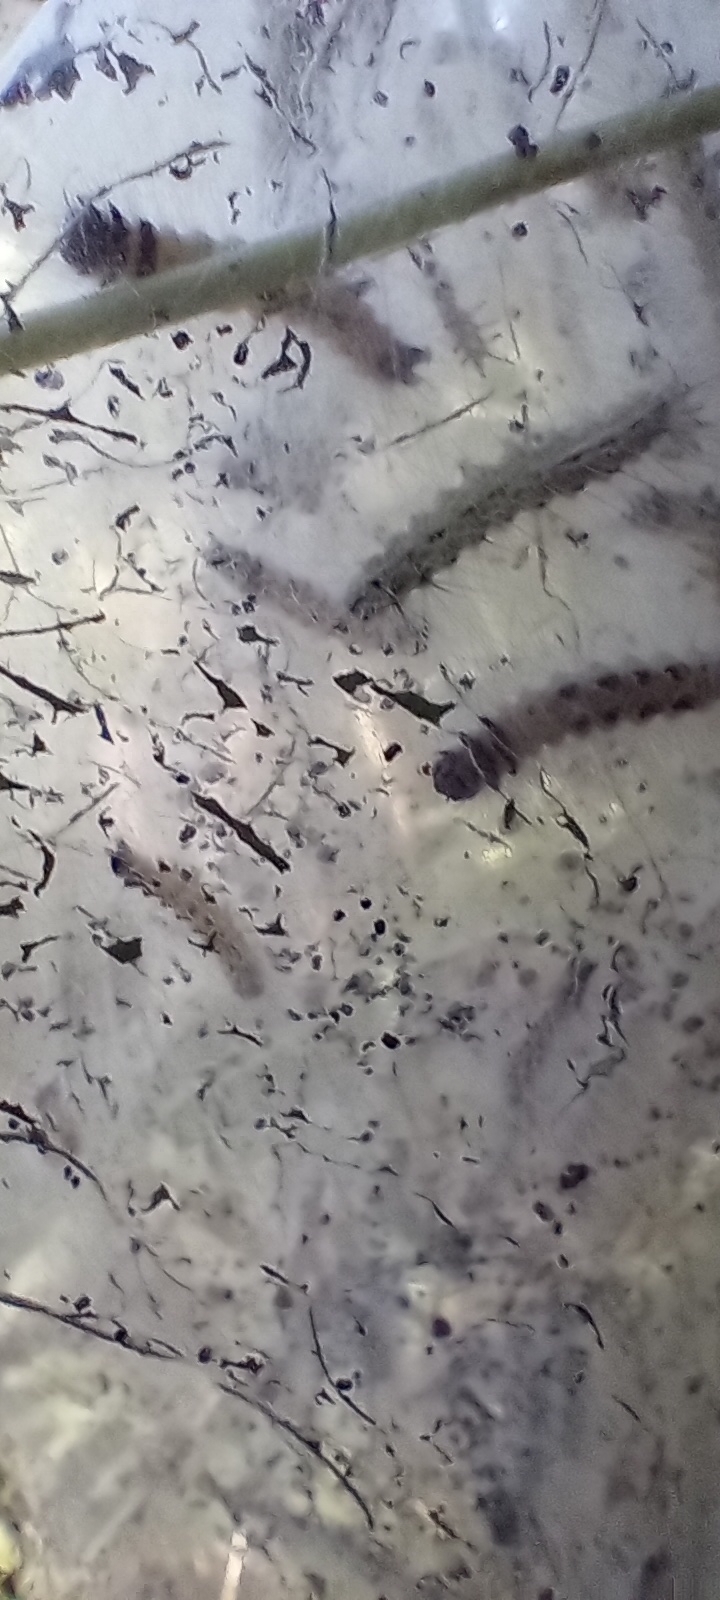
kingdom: Animalia
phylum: Arthropoda
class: Insecta
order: Lepidoptera
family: Erebidae
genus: Hyphantria
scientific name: Hyphantria cunea
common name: American white moth
